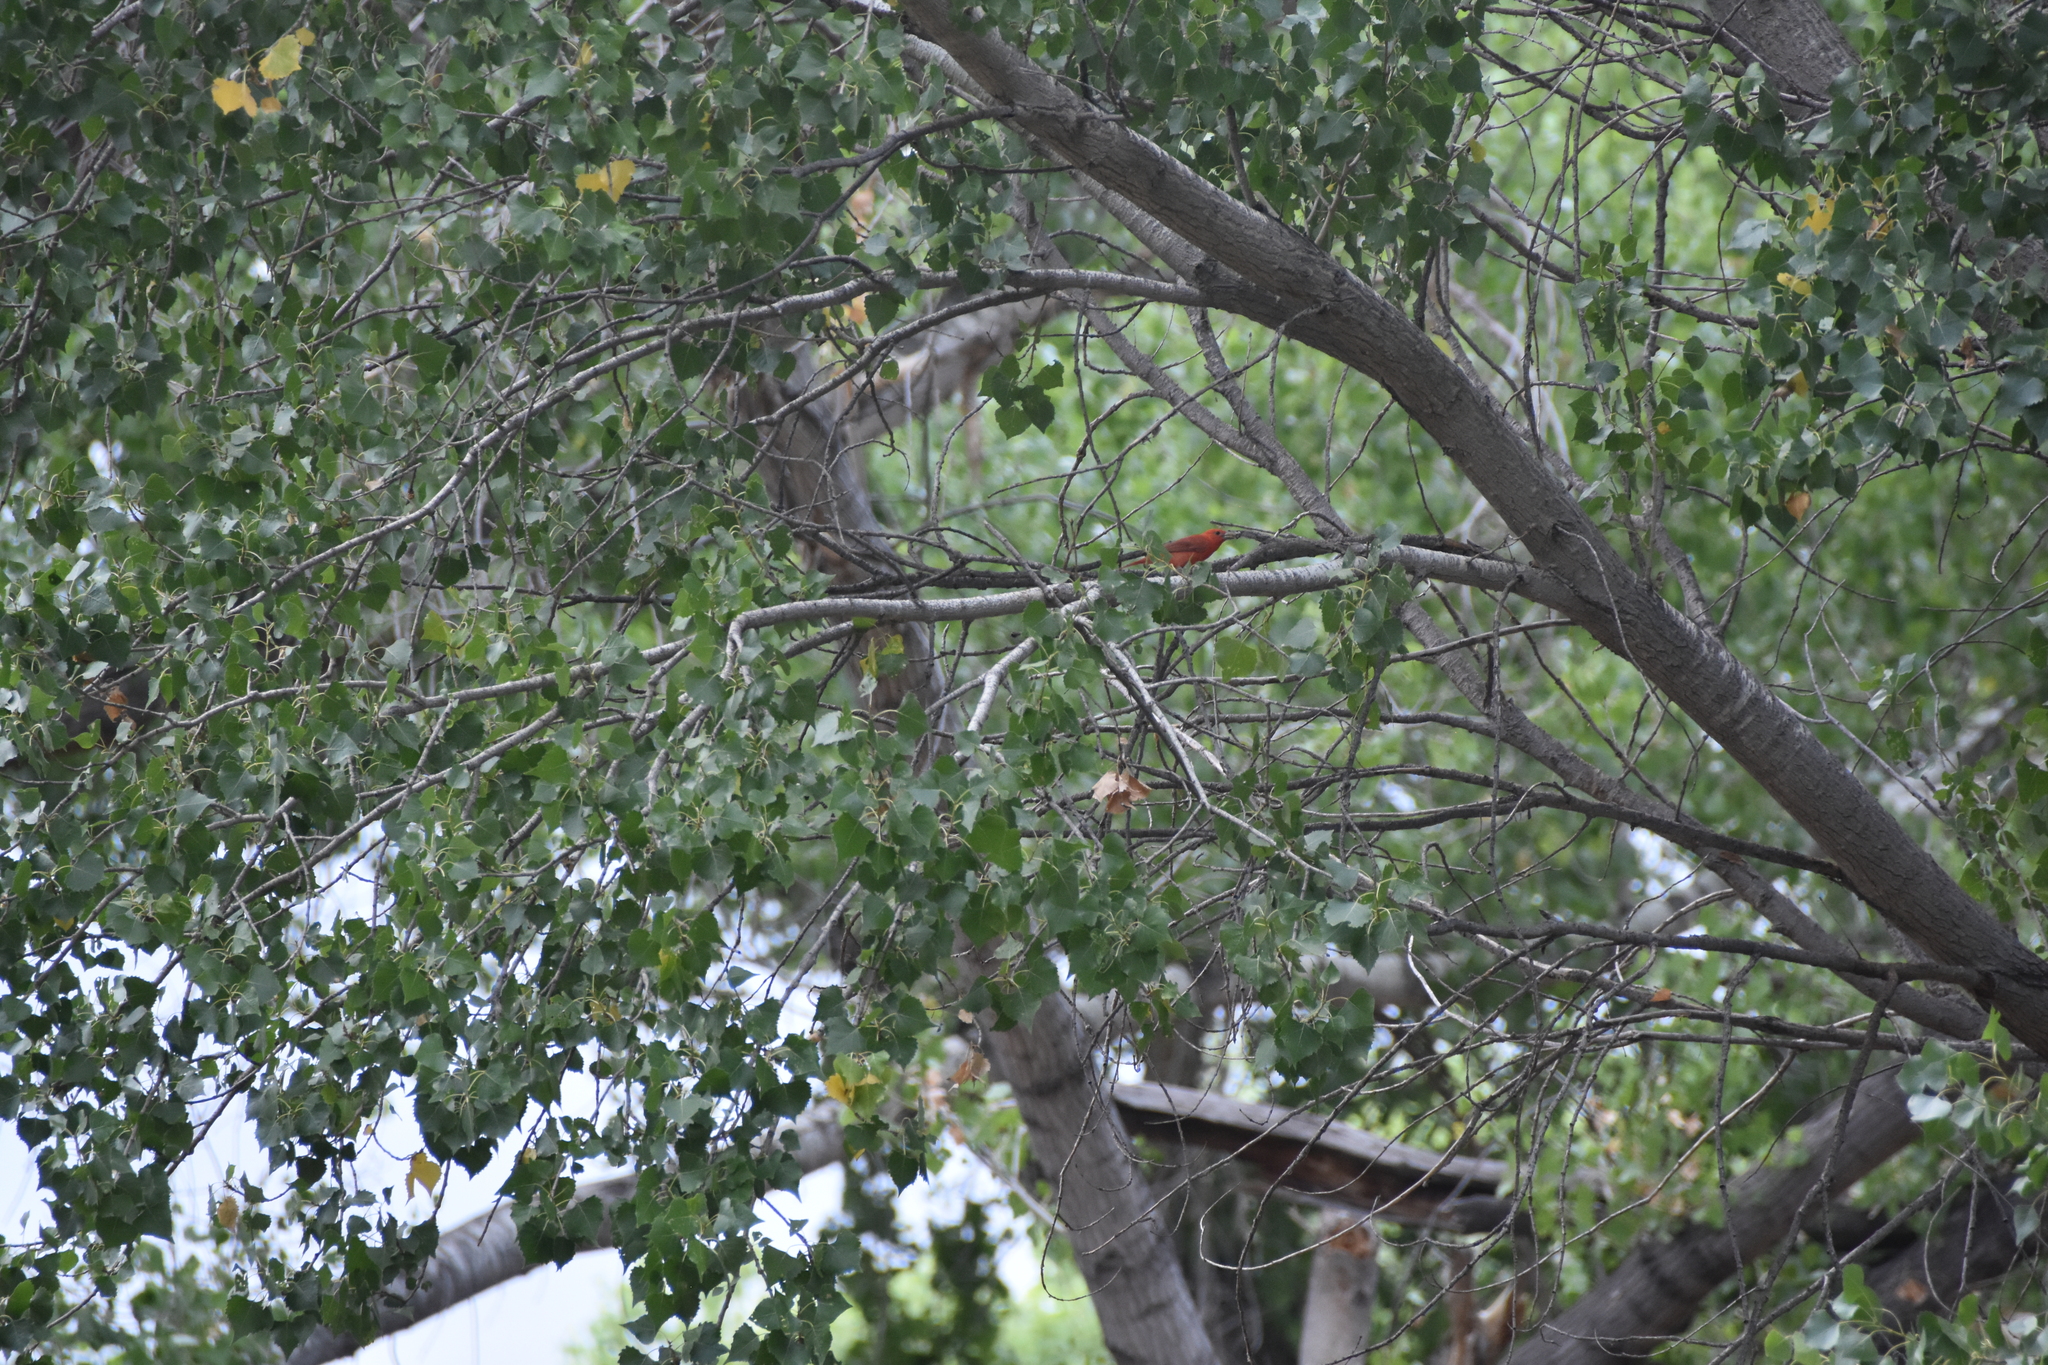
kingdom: Animalia
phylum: Chordata
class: Aves
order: Passeriformes
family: Cardinalidae
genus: Piranga
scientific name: Piranga rubra
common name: Summer tanager
